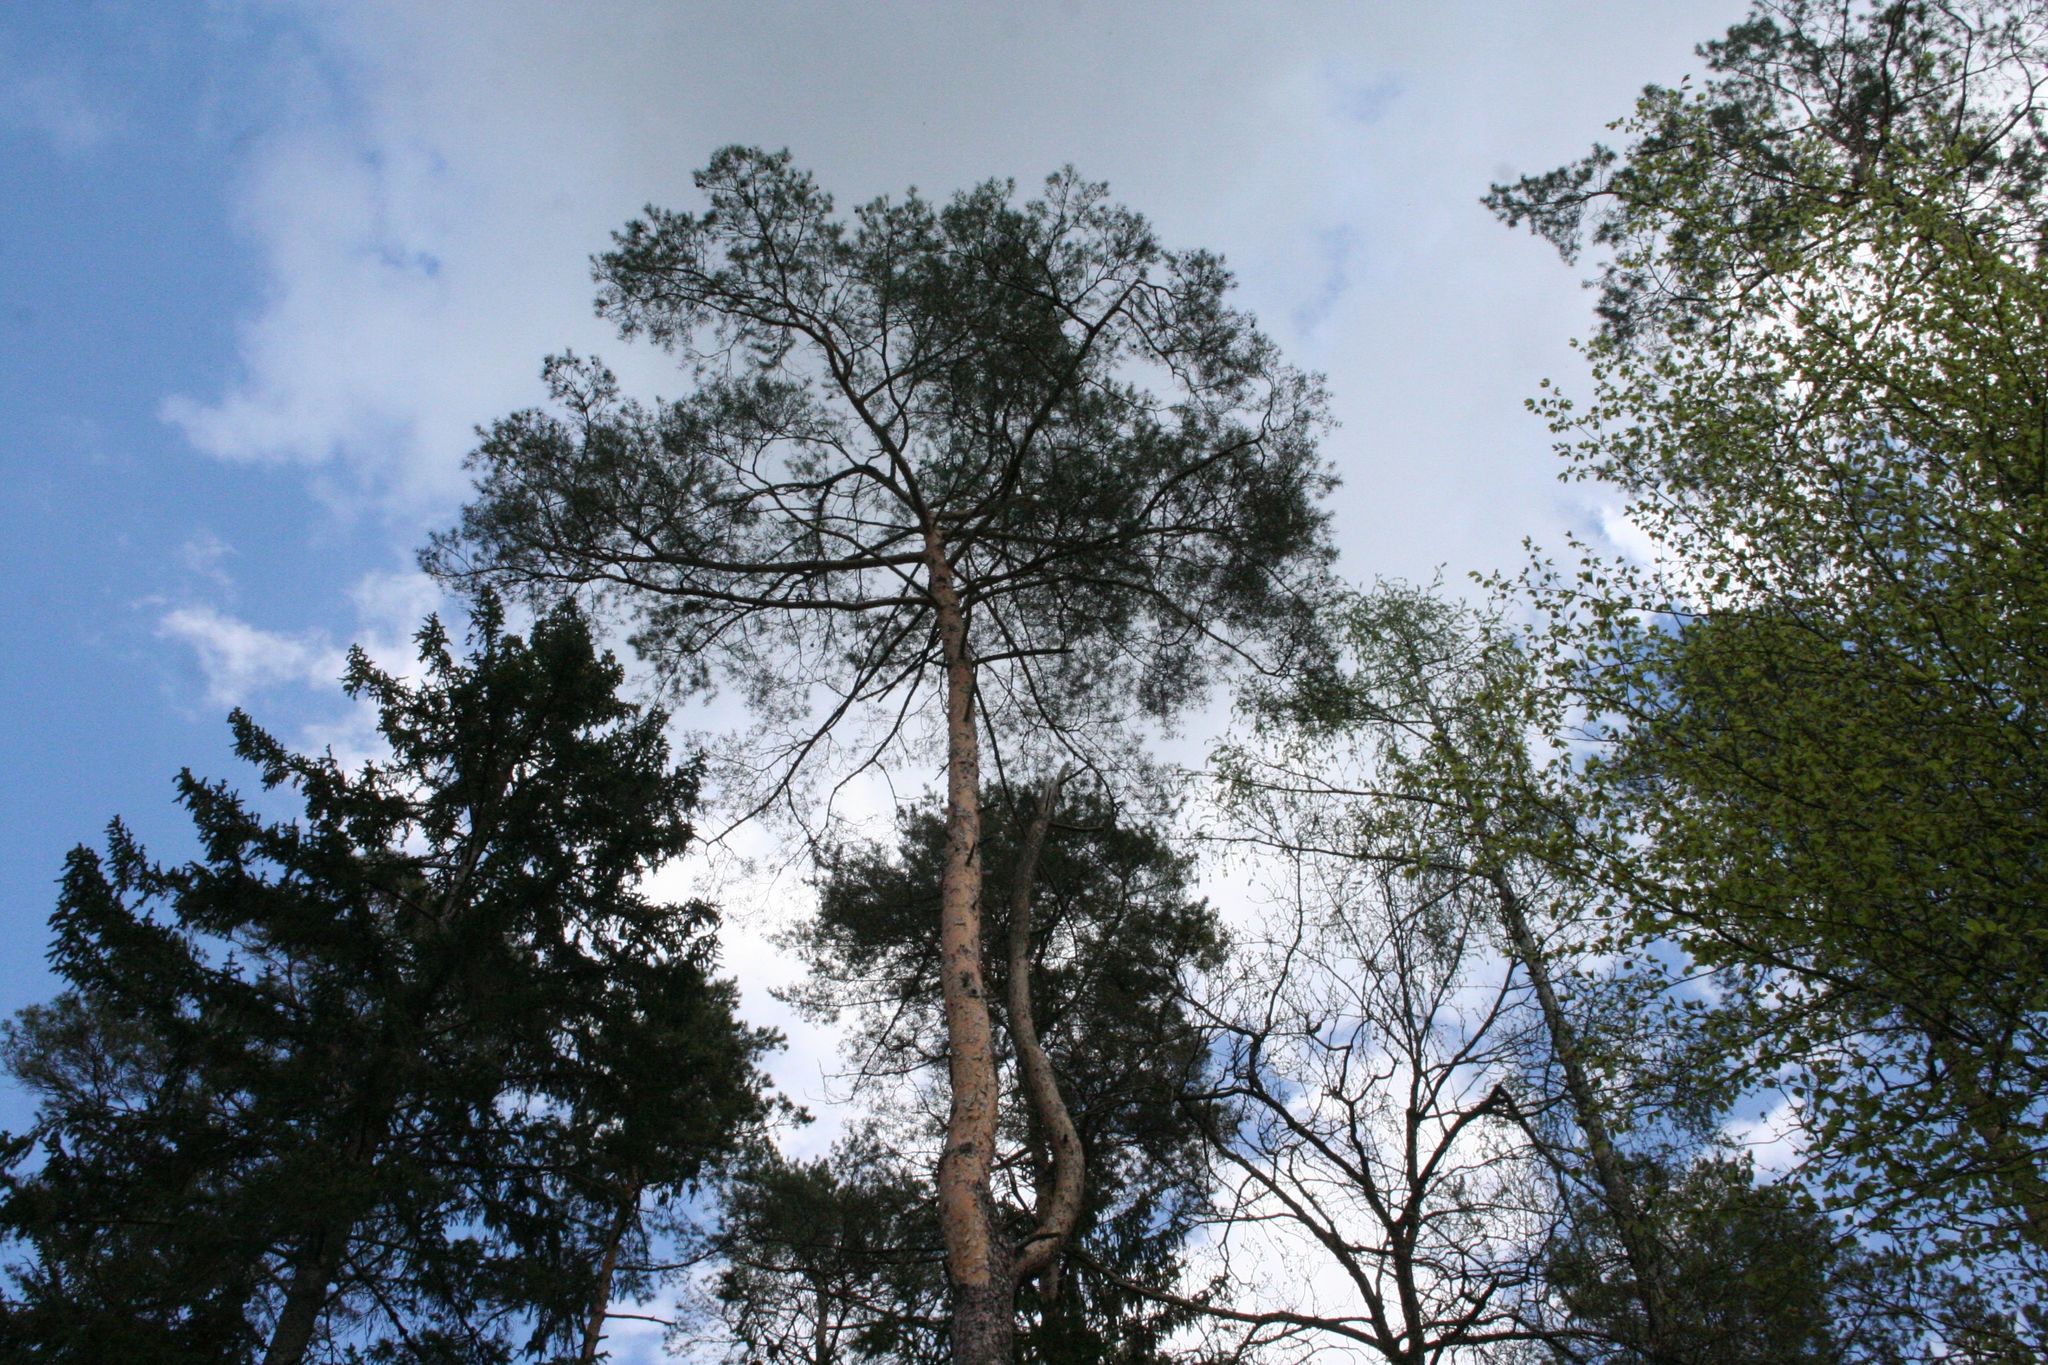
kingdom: Plantae
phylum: Tracheophyta
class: Pinopsida
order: Pinales
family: Pinaceae
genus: Pinus
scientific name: Pinus sylvestris
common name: Scots pine
